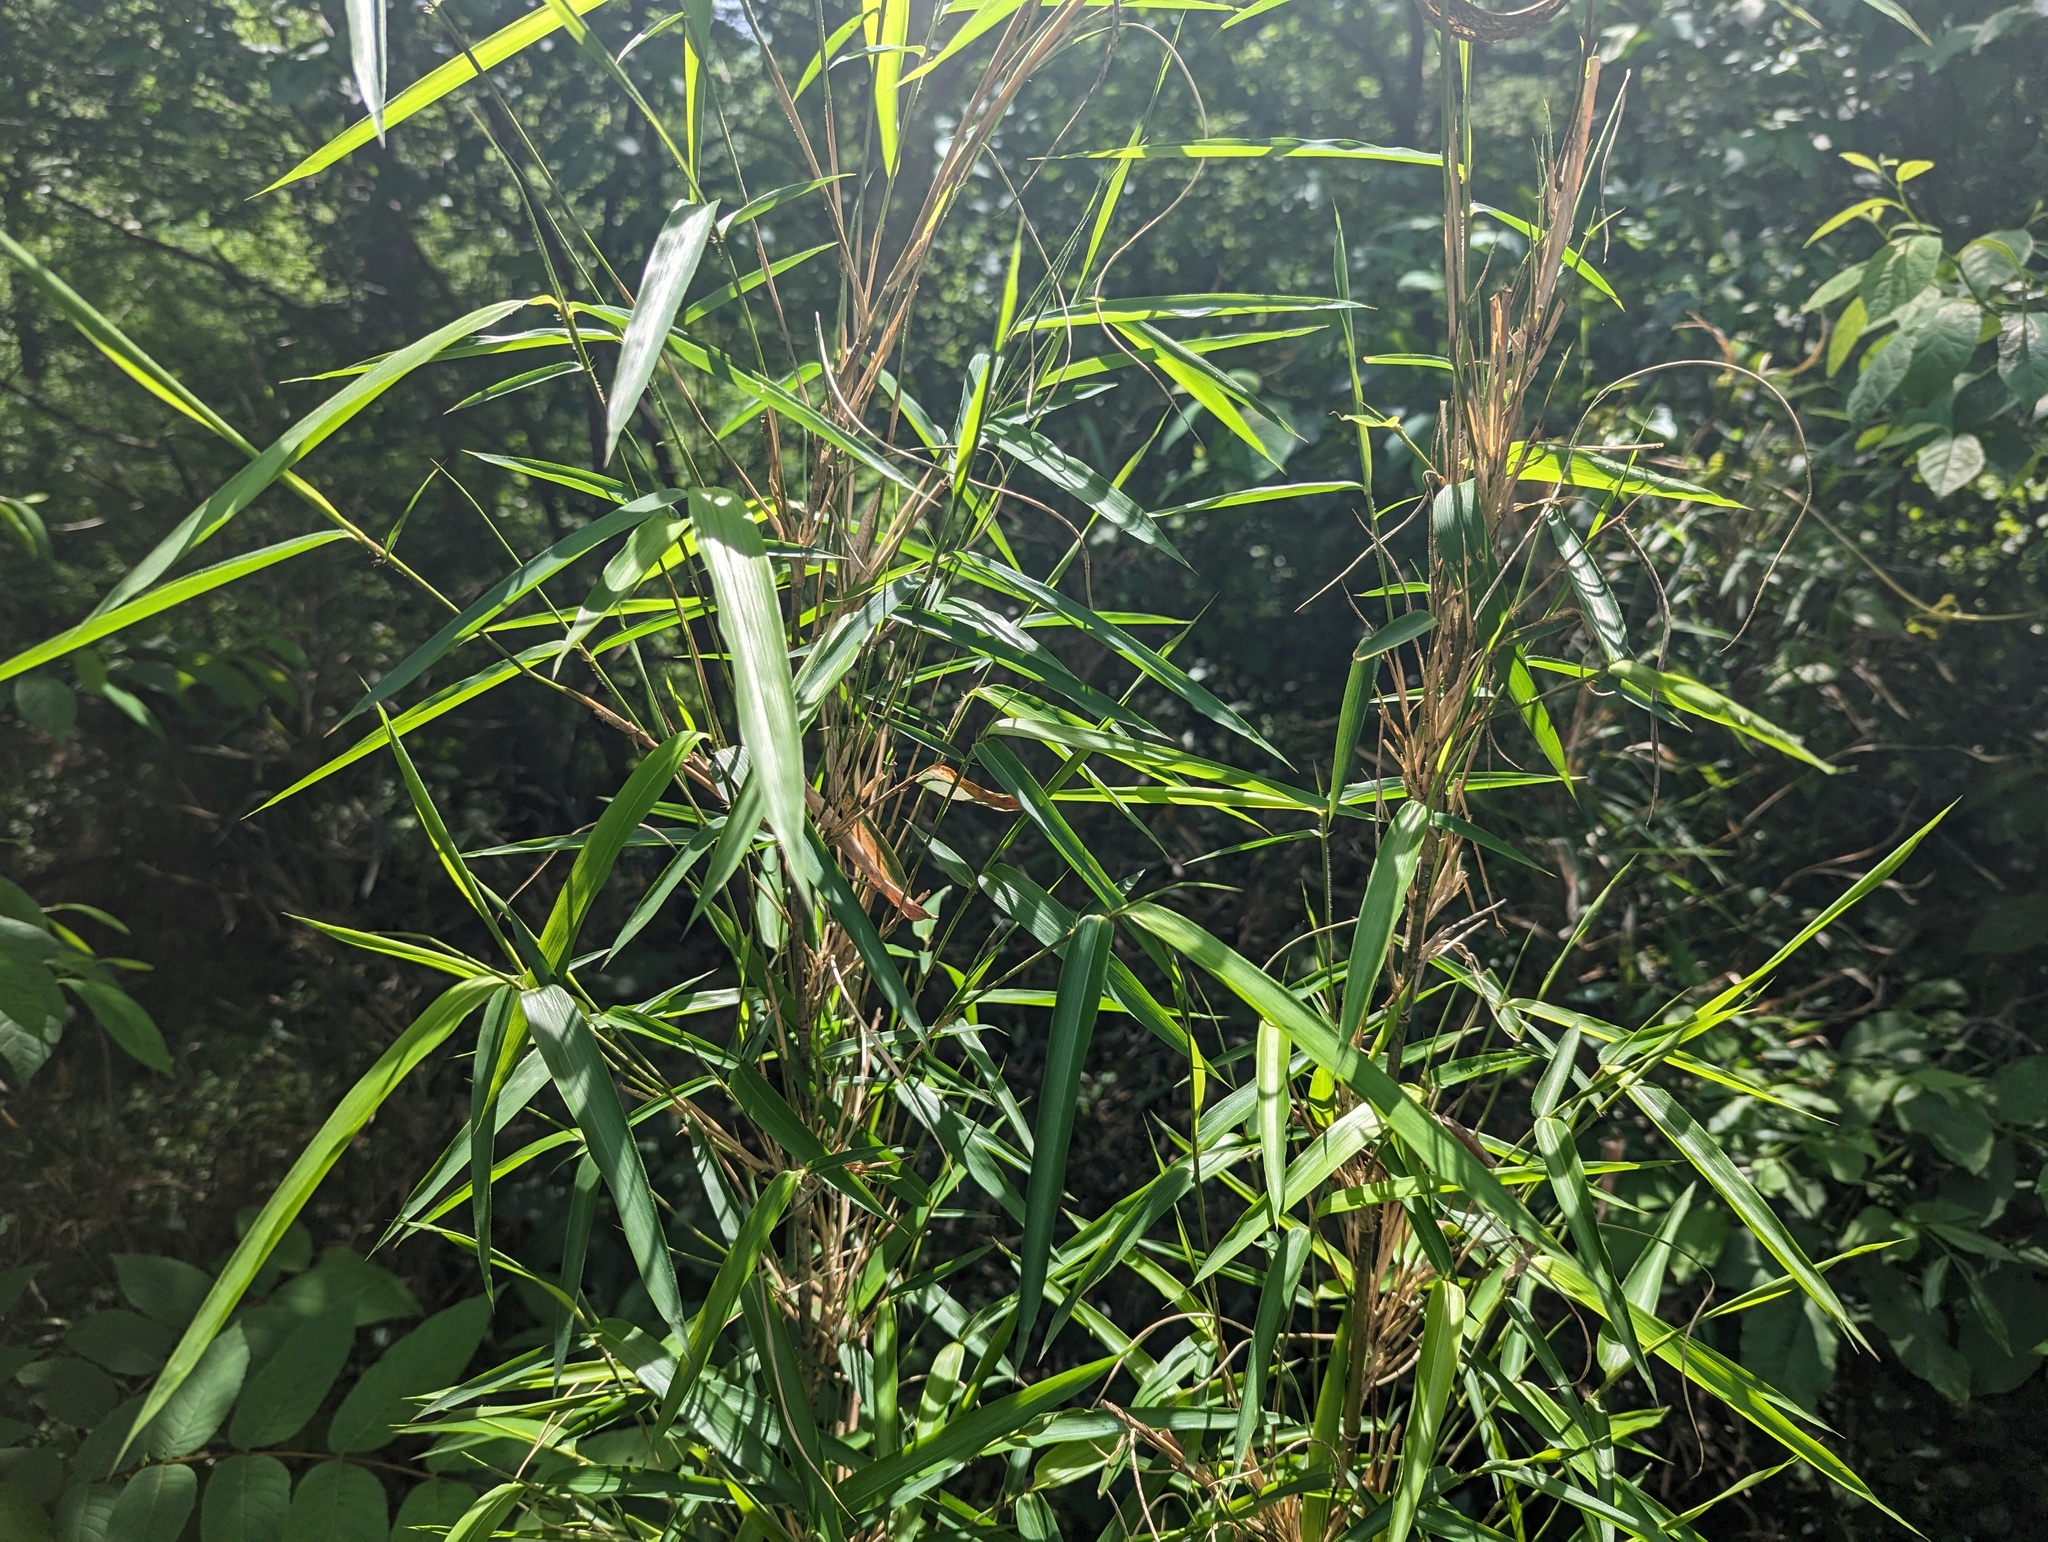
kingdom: Plantae
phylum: Tracheophyta
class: Liliopsida
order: Poales
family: Poaceae
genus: Arundinaria
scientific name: Arundinaria gigantea
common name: Giant cane
